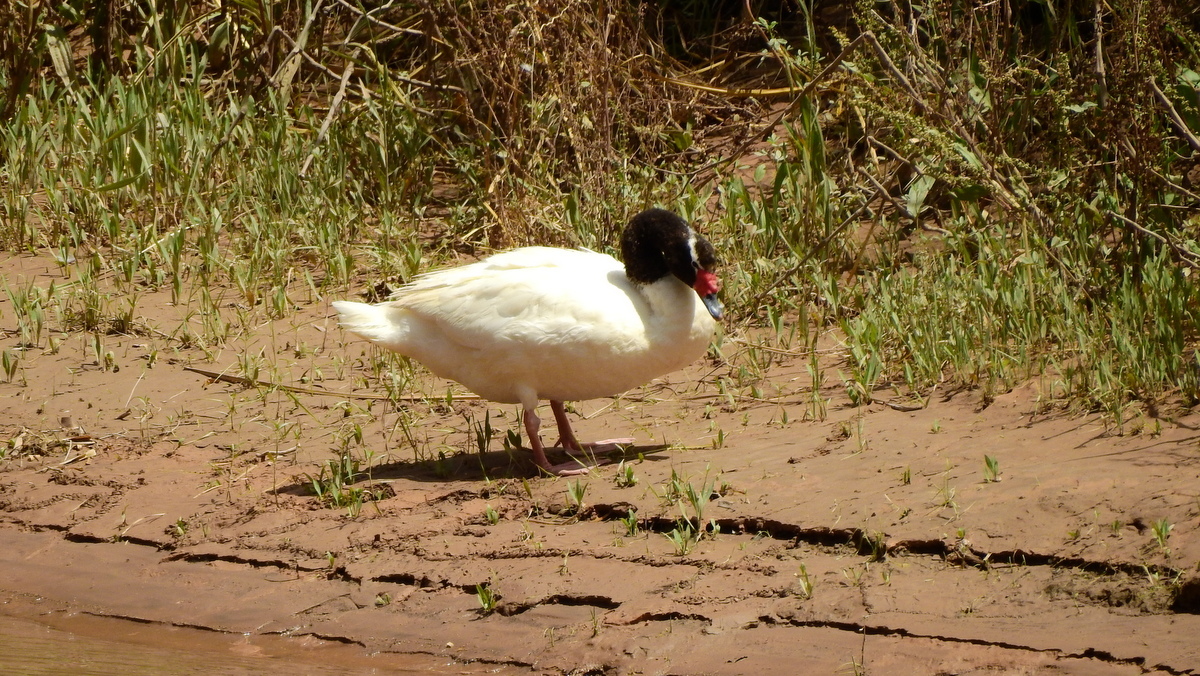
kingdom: Animalia
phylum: Chordata
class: Aves
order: Anseriformes
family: Anatidae
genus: Cygnus
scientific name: Cygnus melancoryphus
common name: Black-necked swan
